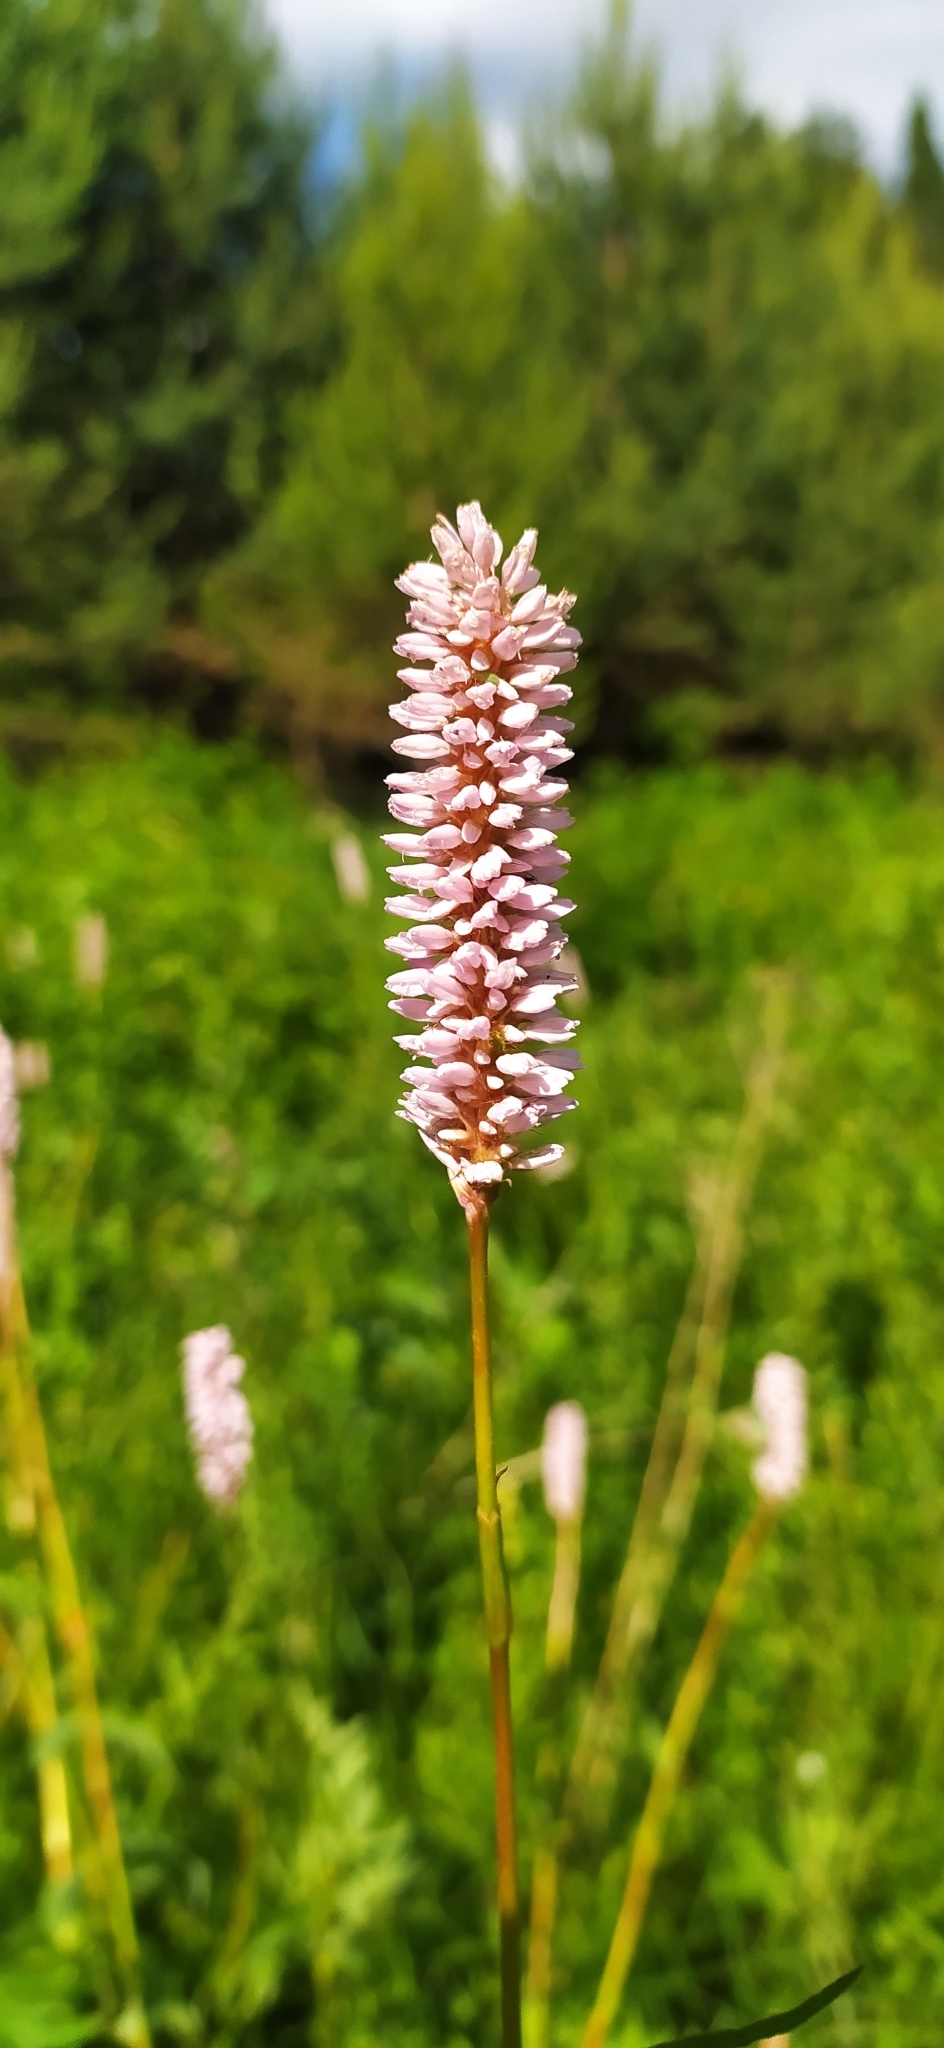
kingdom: Plantae
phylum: Tracheophyta
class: Magnoliopsida
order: Caryophyllales
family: Polygonaceae
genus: Bistorta
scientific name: Bistorta officinalis
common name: Common bistort
